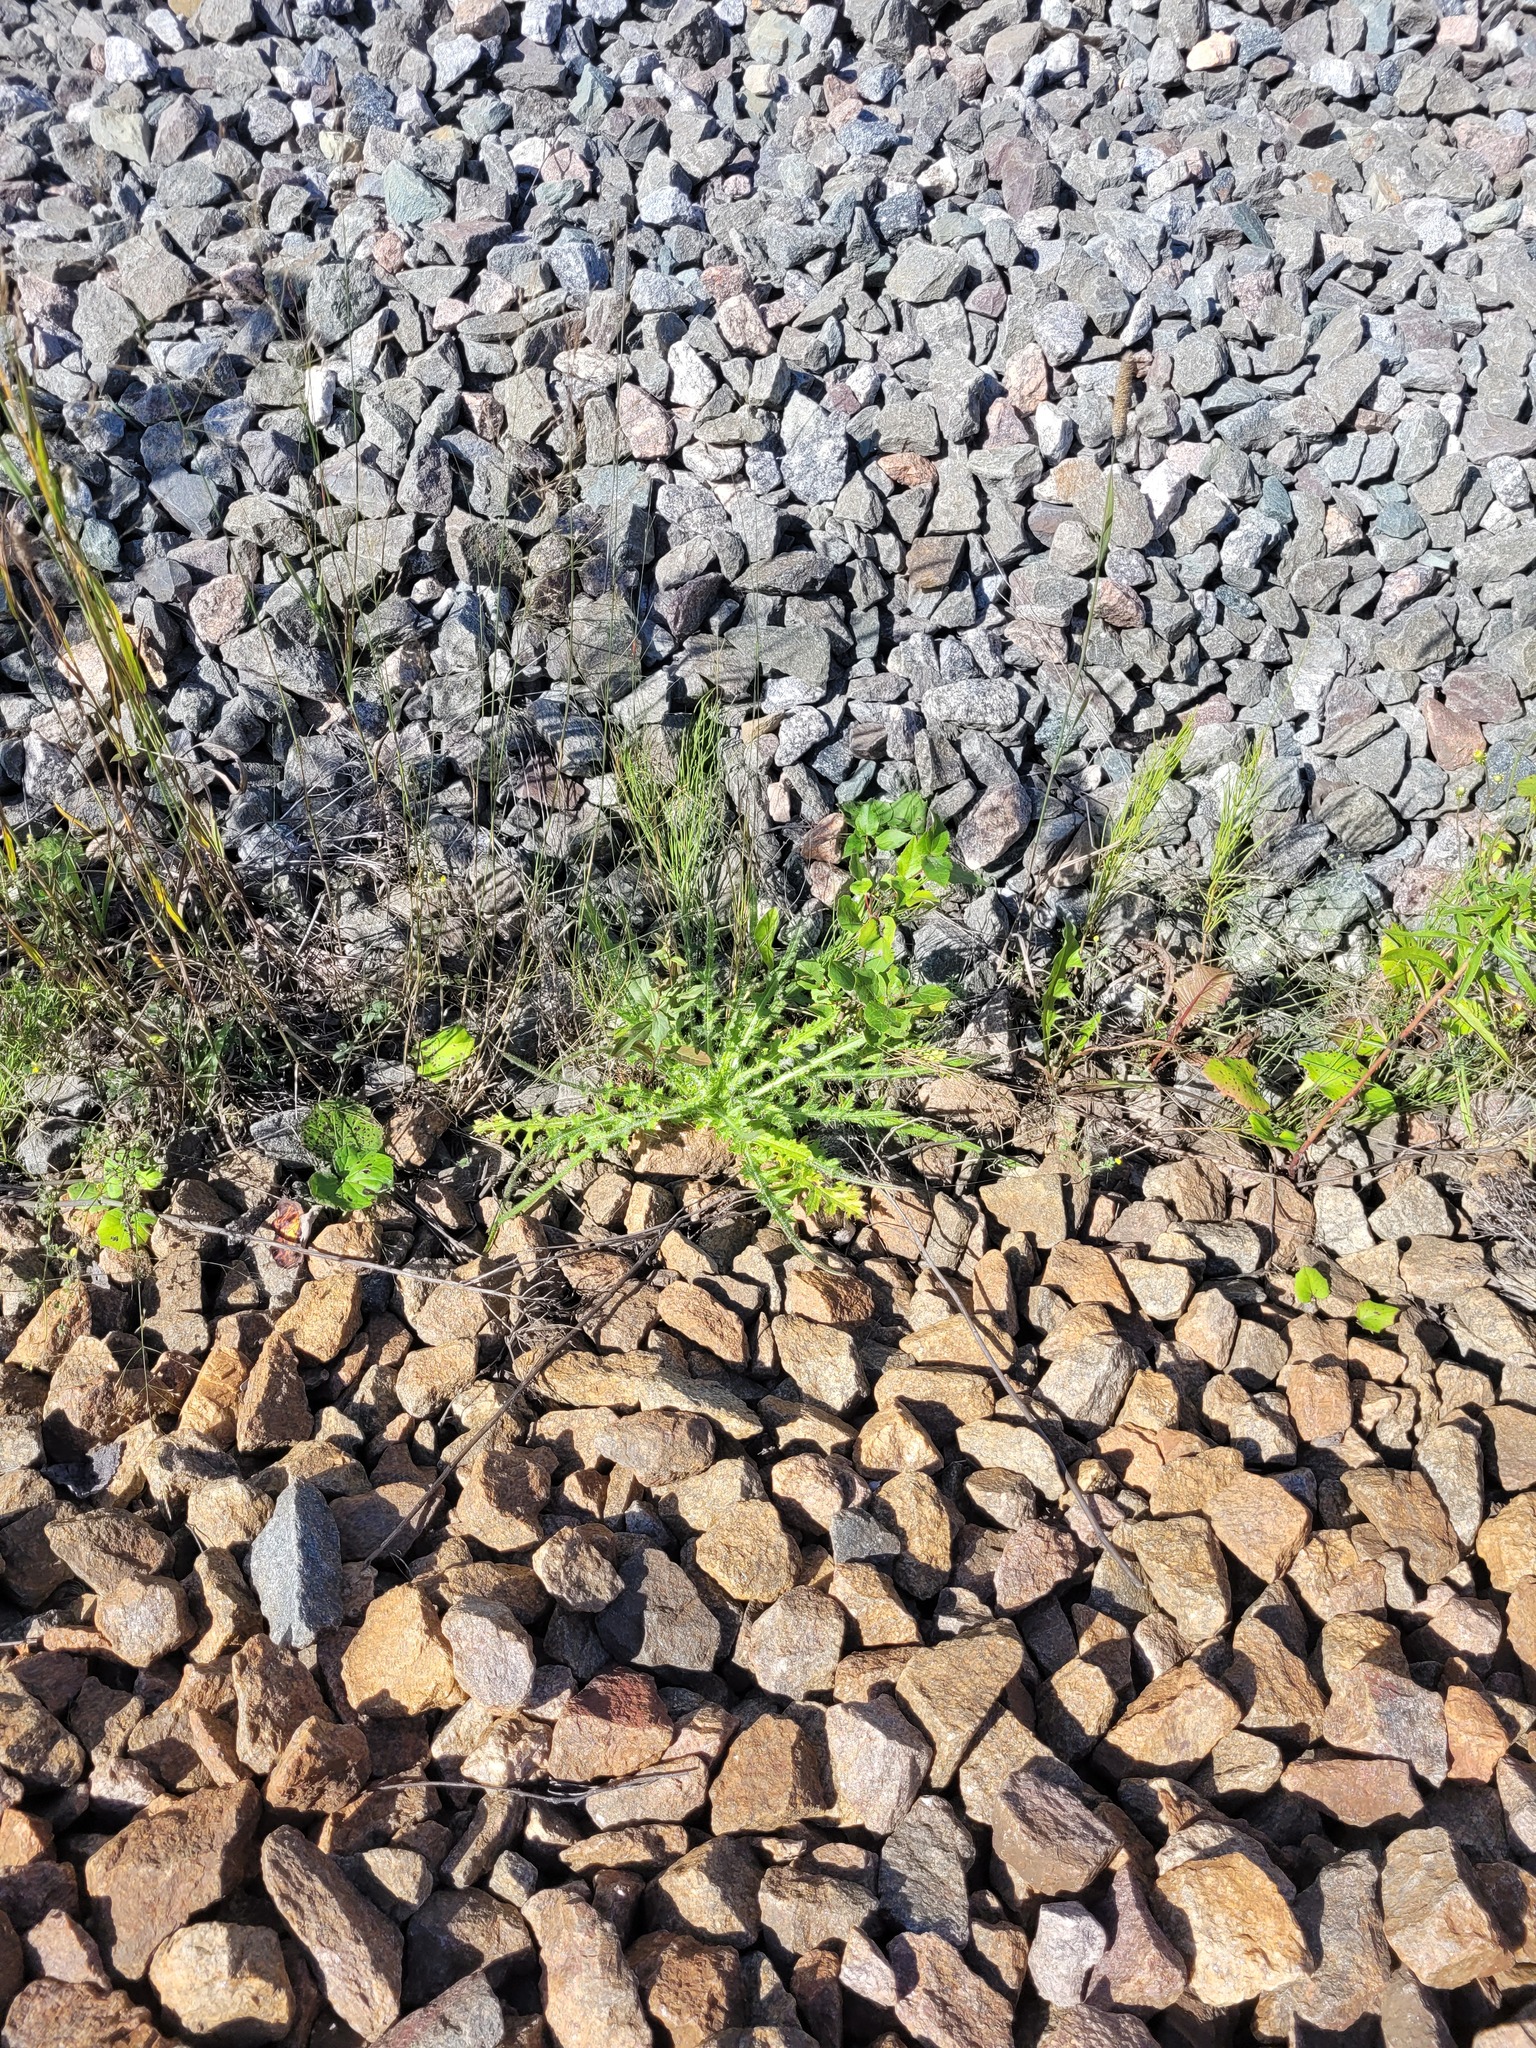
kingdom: Plantae
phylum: Tracheophyta
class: Magnoliopsida
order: Asterales
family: Asteraceae
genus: Cirsium
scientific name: Cirsium palustre
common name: Marsh thistle
